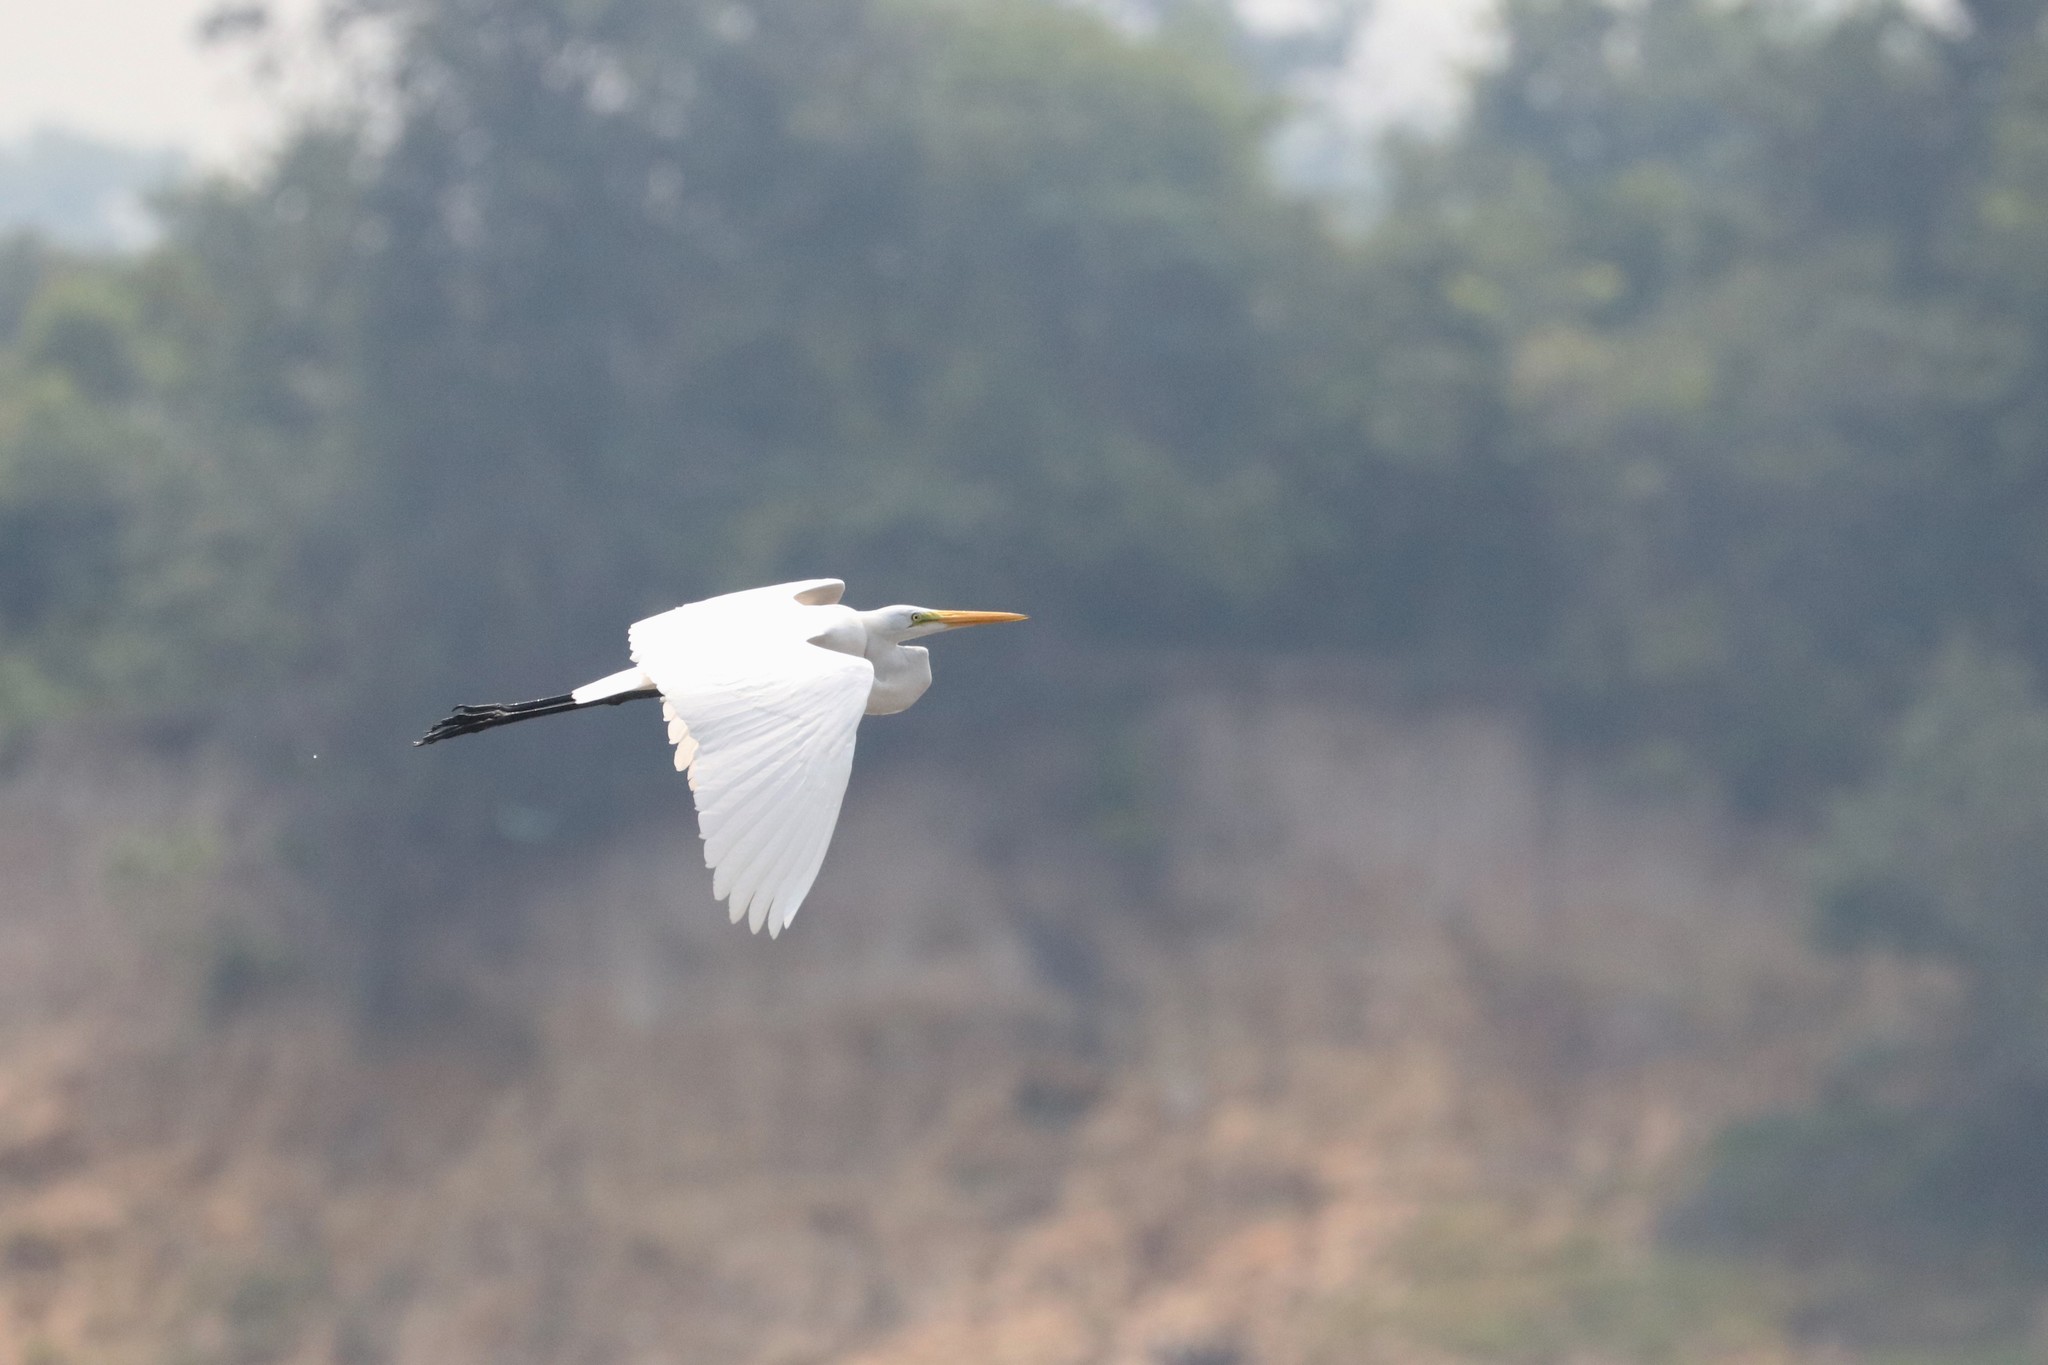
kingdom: Animalia
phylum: Chordata
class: Aves
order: Pelecaniformes
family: Ardeidae
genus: Ardea
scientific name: Ardea alba
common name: Great egret
